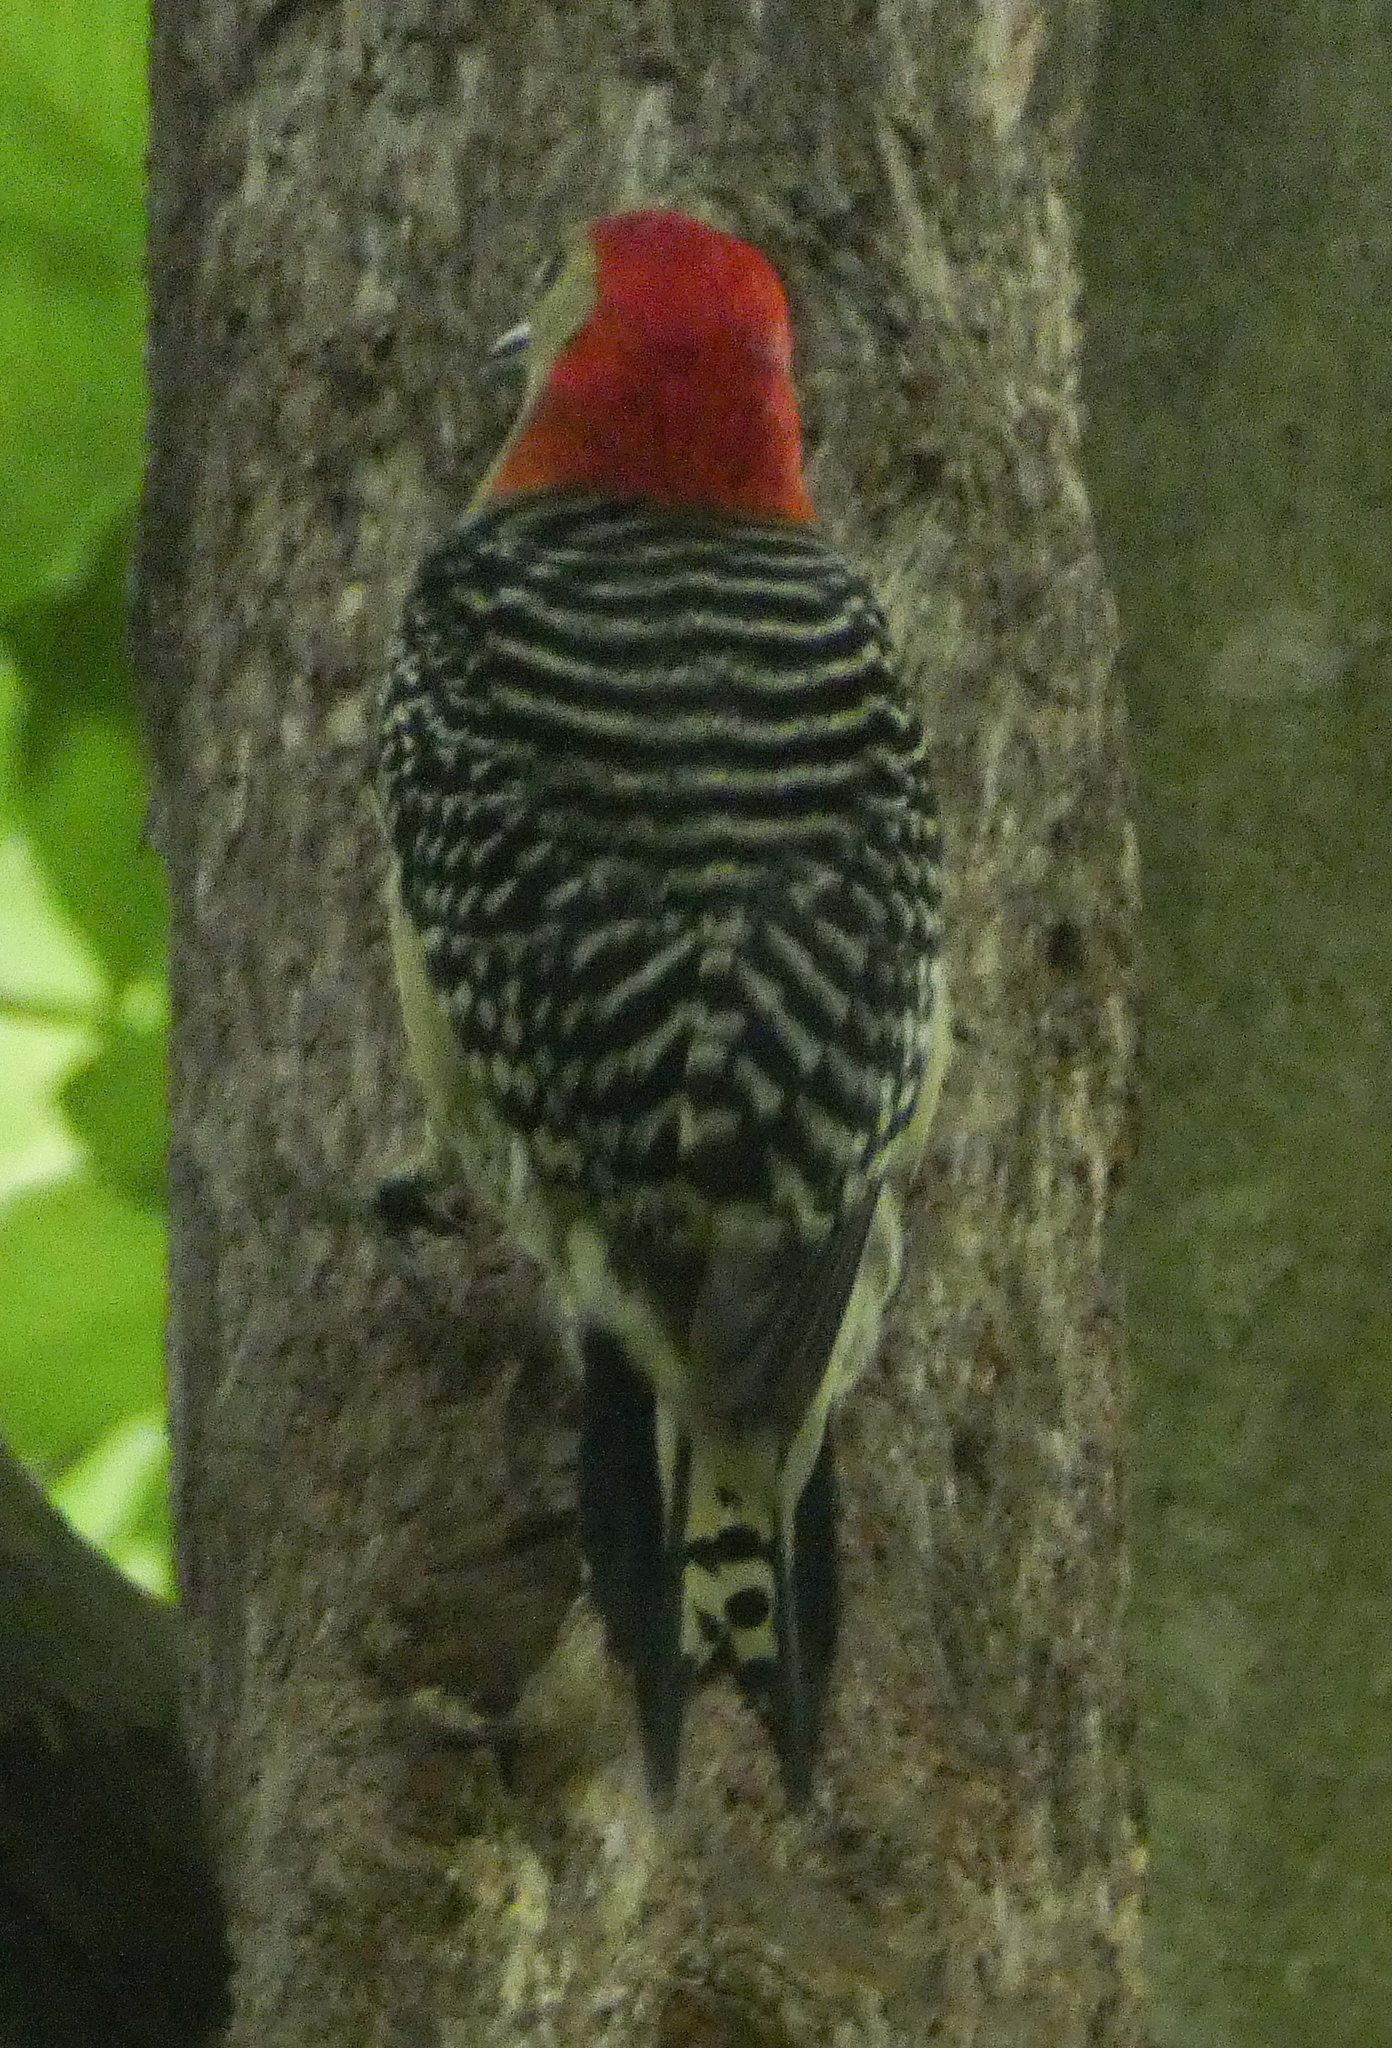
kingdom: Animalia
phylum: Chordata
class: Aves
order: Piciformes
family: Picidae
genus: Melanerpes
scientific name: Melanerpes carolinus
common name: Red-bellied woodpecker
